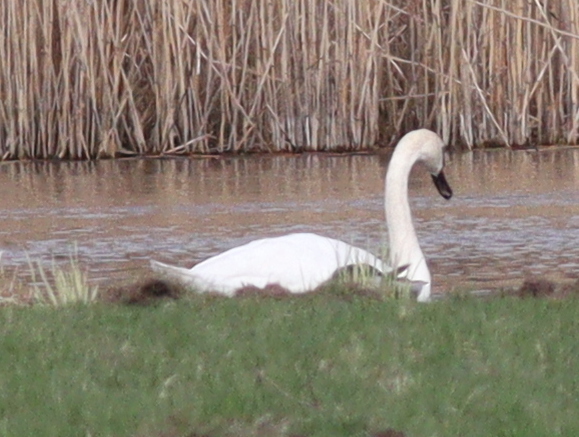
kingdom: Animalia
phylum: Chordata
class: Aves
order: Anseriformes
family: Anatidae
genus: Cygnus
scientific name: Cygnus olor
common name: Mute swan
